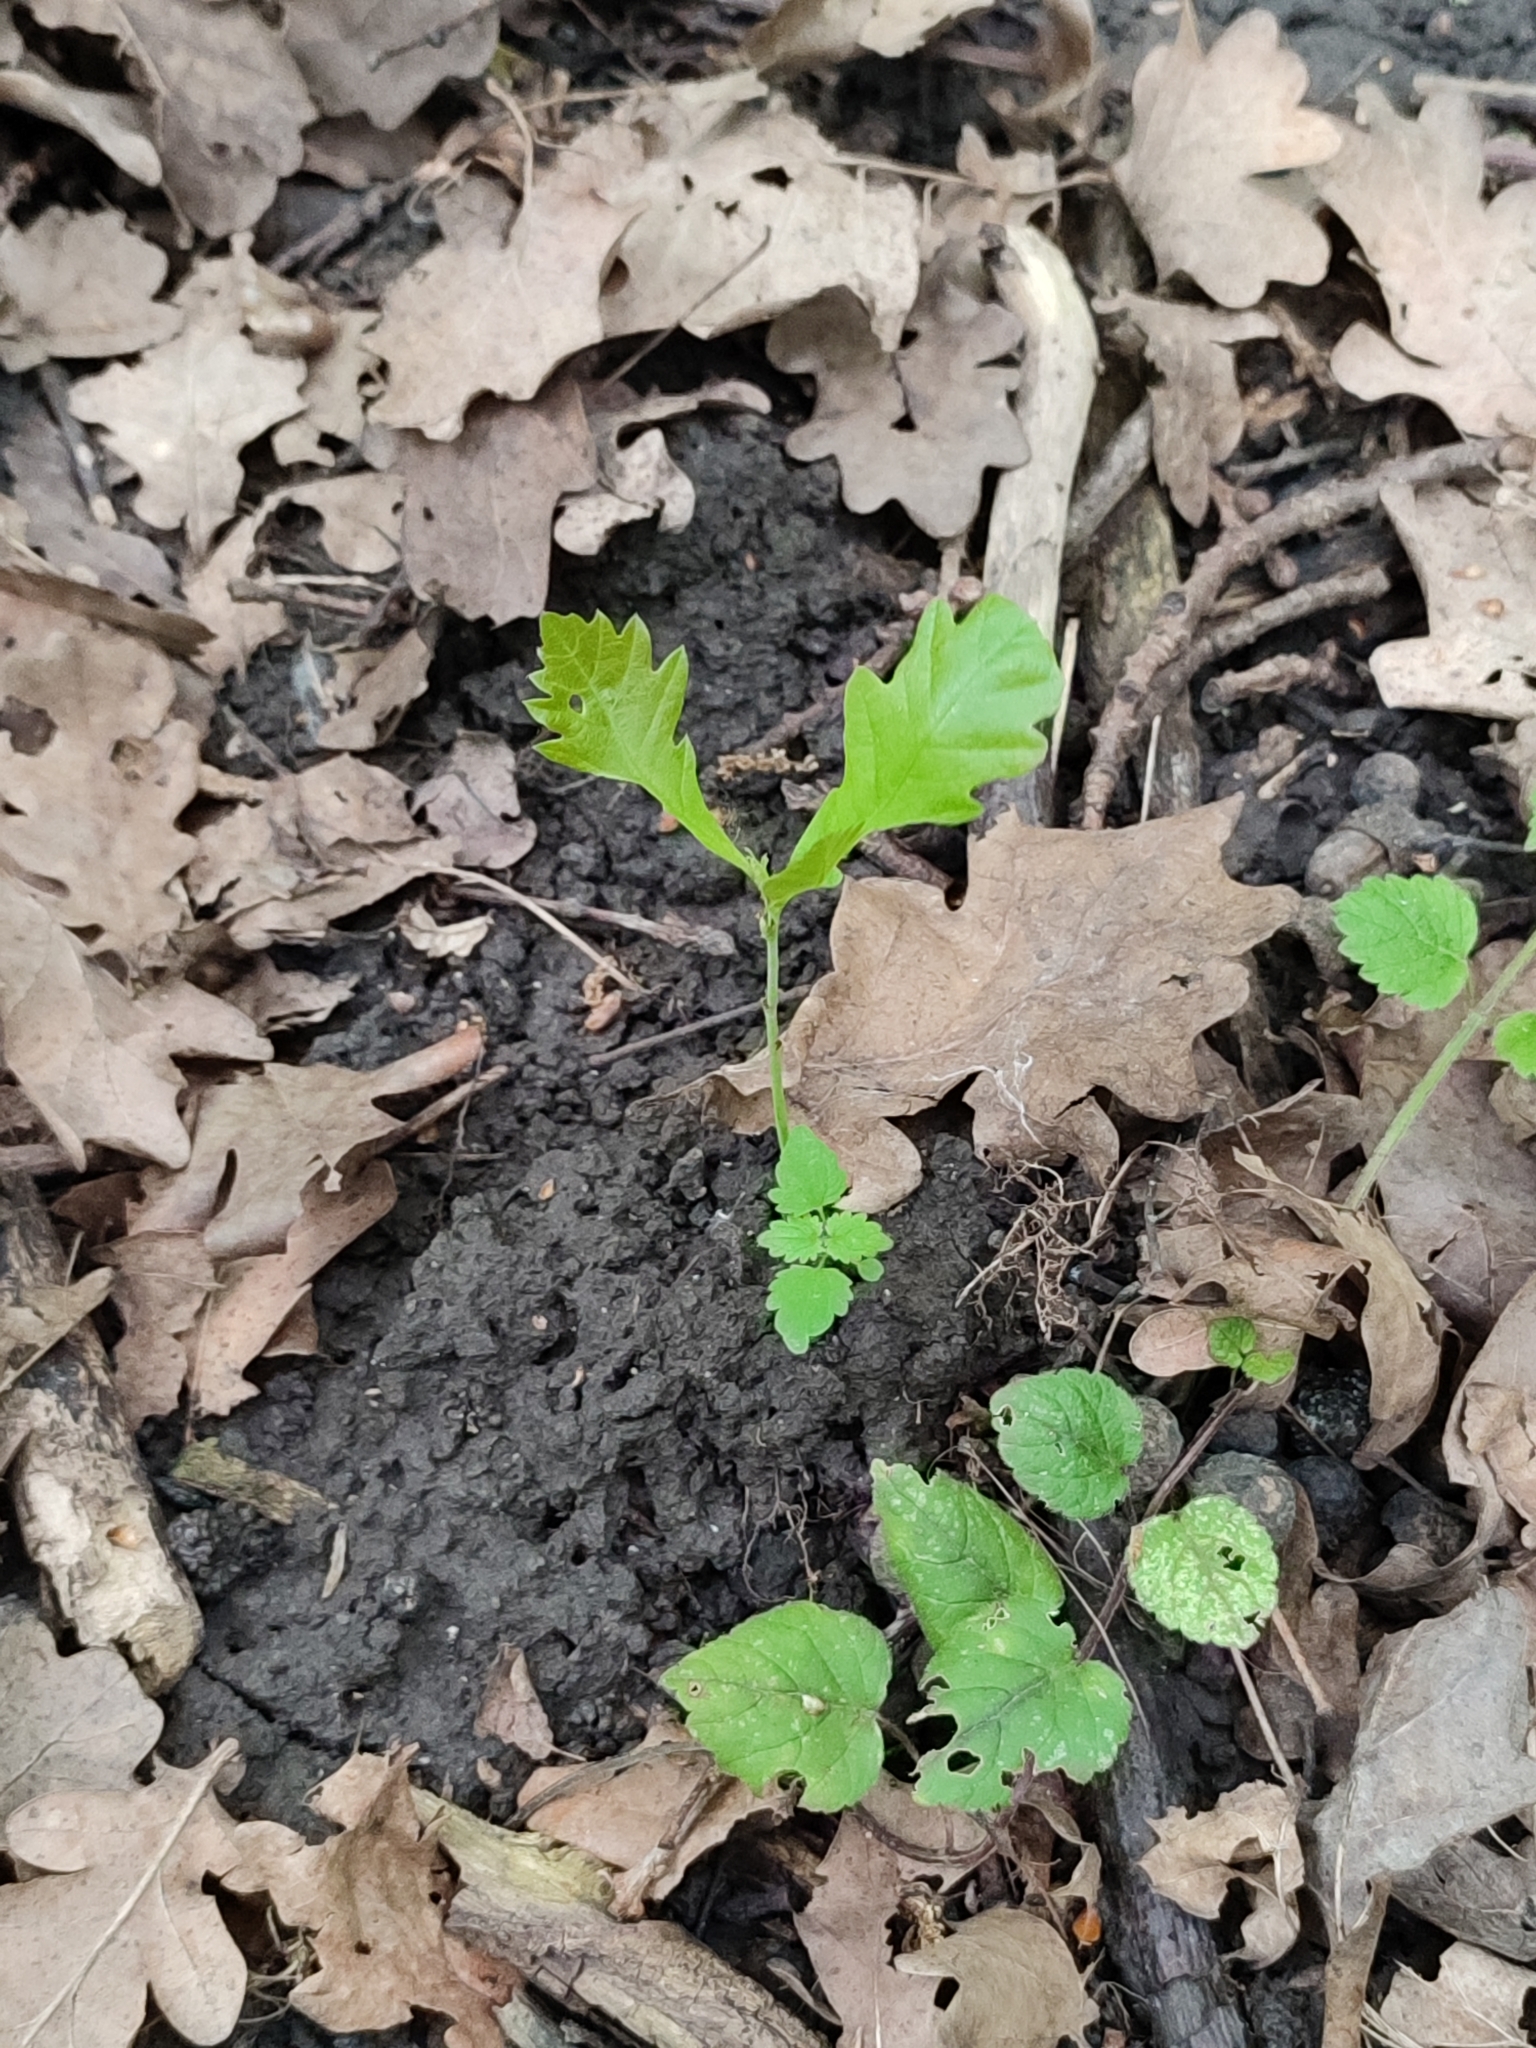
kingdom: Plantae
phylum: Tracheophyta
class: Magnoliopsida
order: Fagales
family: Fagaceae
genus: Quercus
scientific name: Quercus robur
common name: Pedunculate oak
